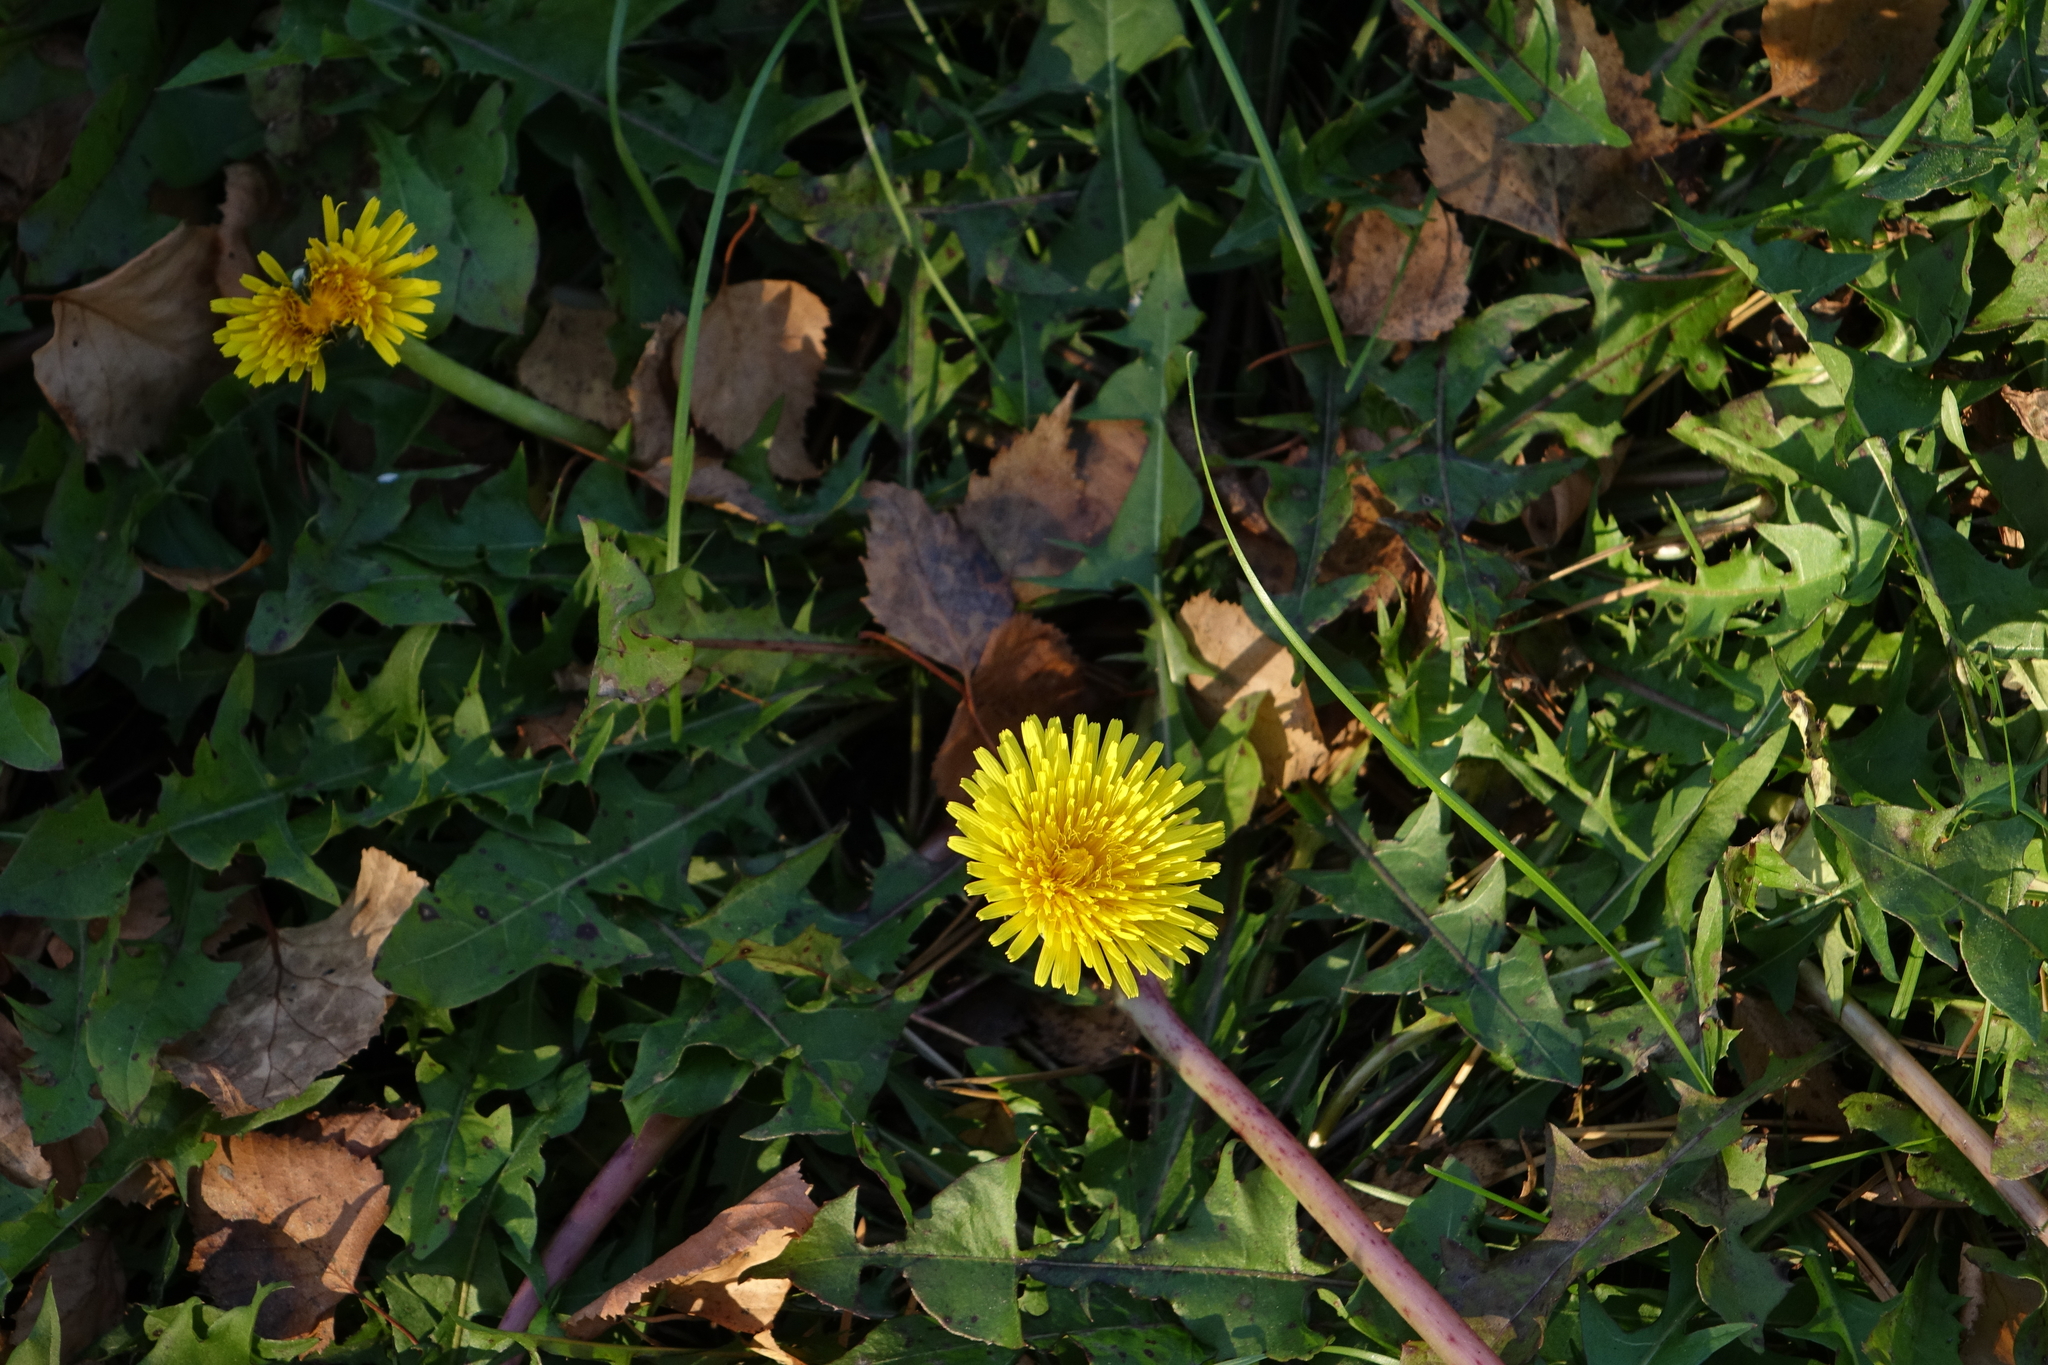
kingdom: Plantae
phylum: Tracheophyta
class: Magnoliopsida
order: Asterales
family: Asteraceae
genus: Taraxacum
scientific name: Taraxacum officinale
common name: Common dandelion
